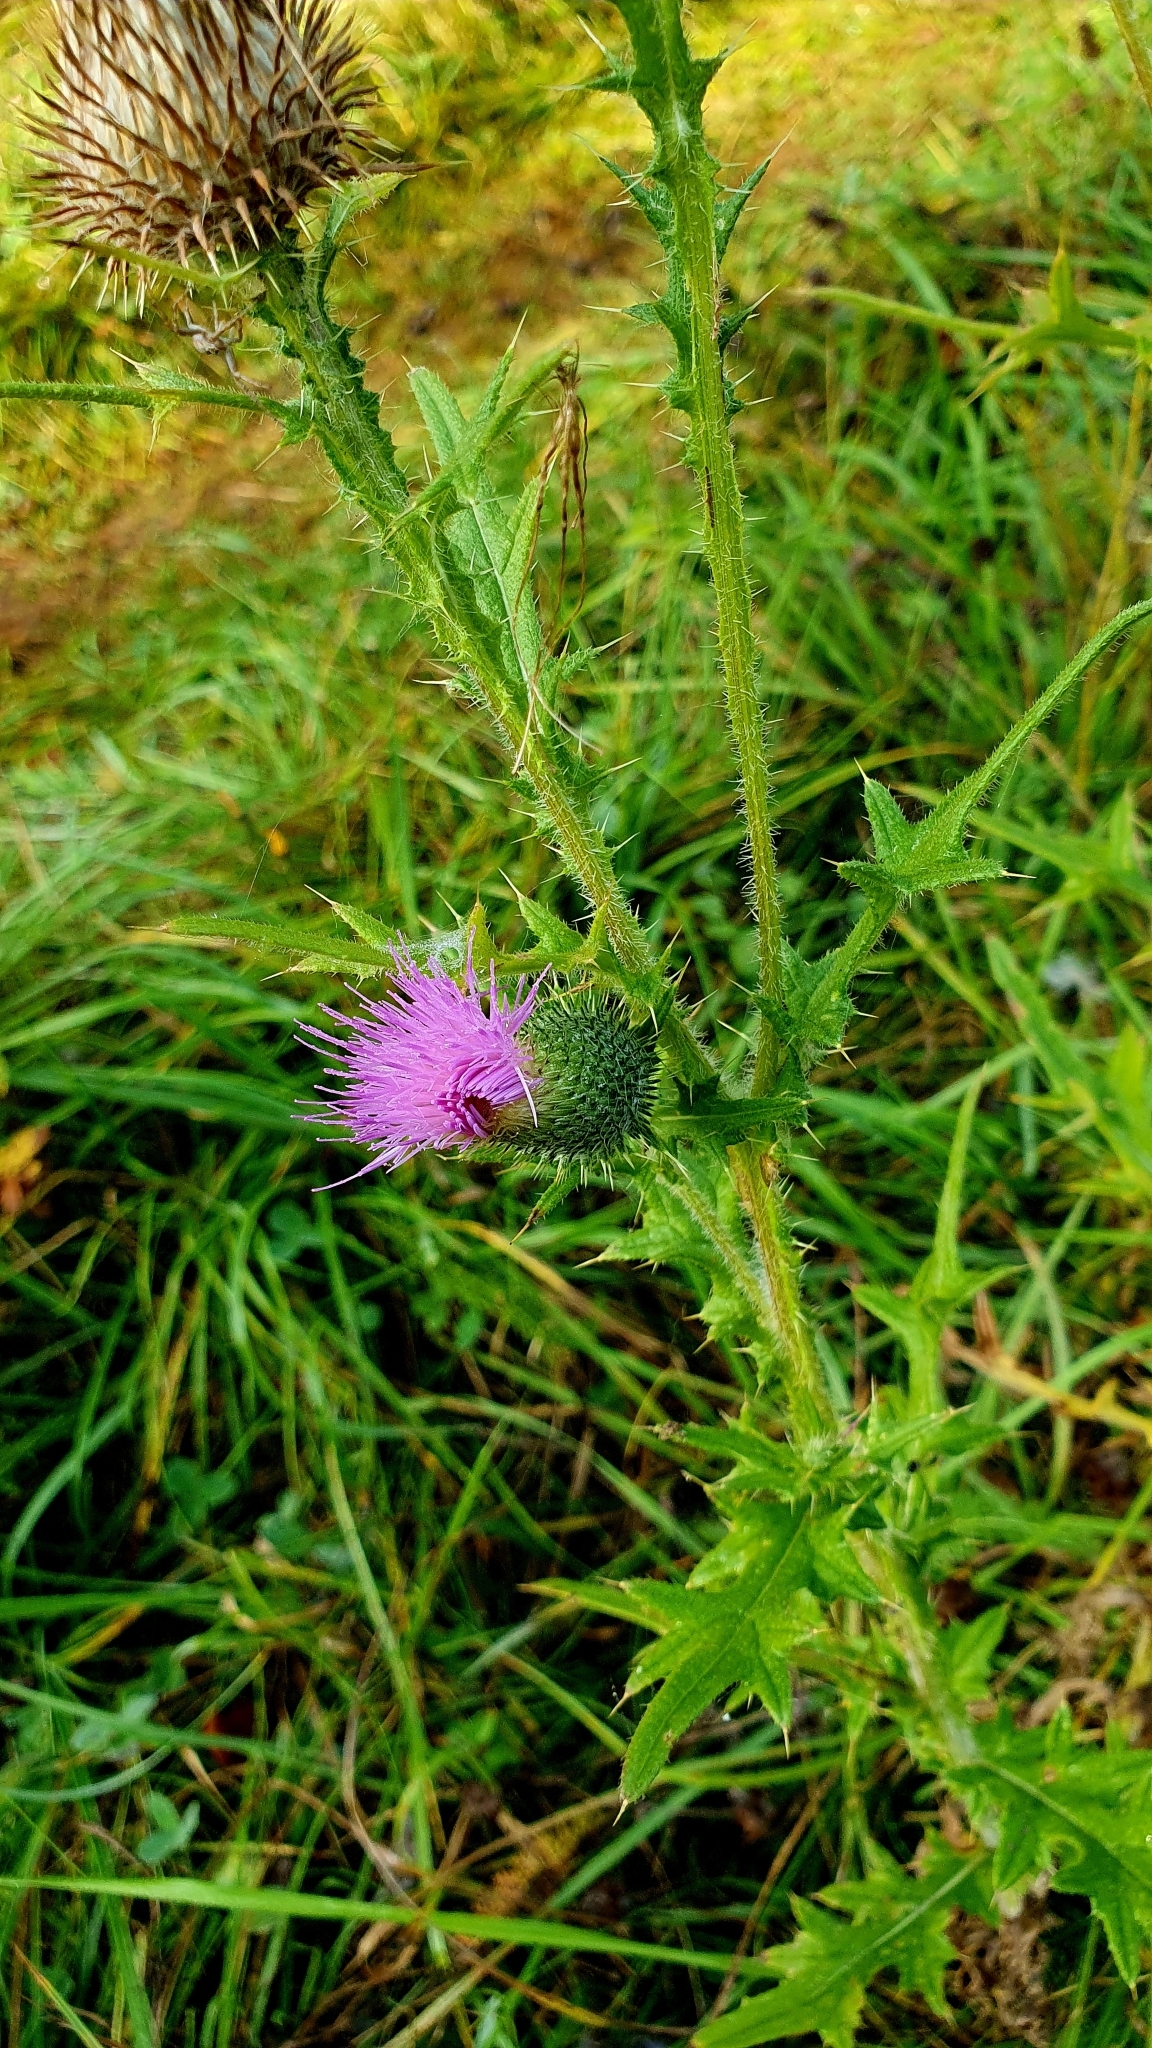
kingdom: Plantae
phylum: Tracheophyta
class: Magnoliopsida
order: Asterales
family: Asteraceae
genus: Cirsium
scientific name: Cirsium vulgare
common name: Bull thistle
